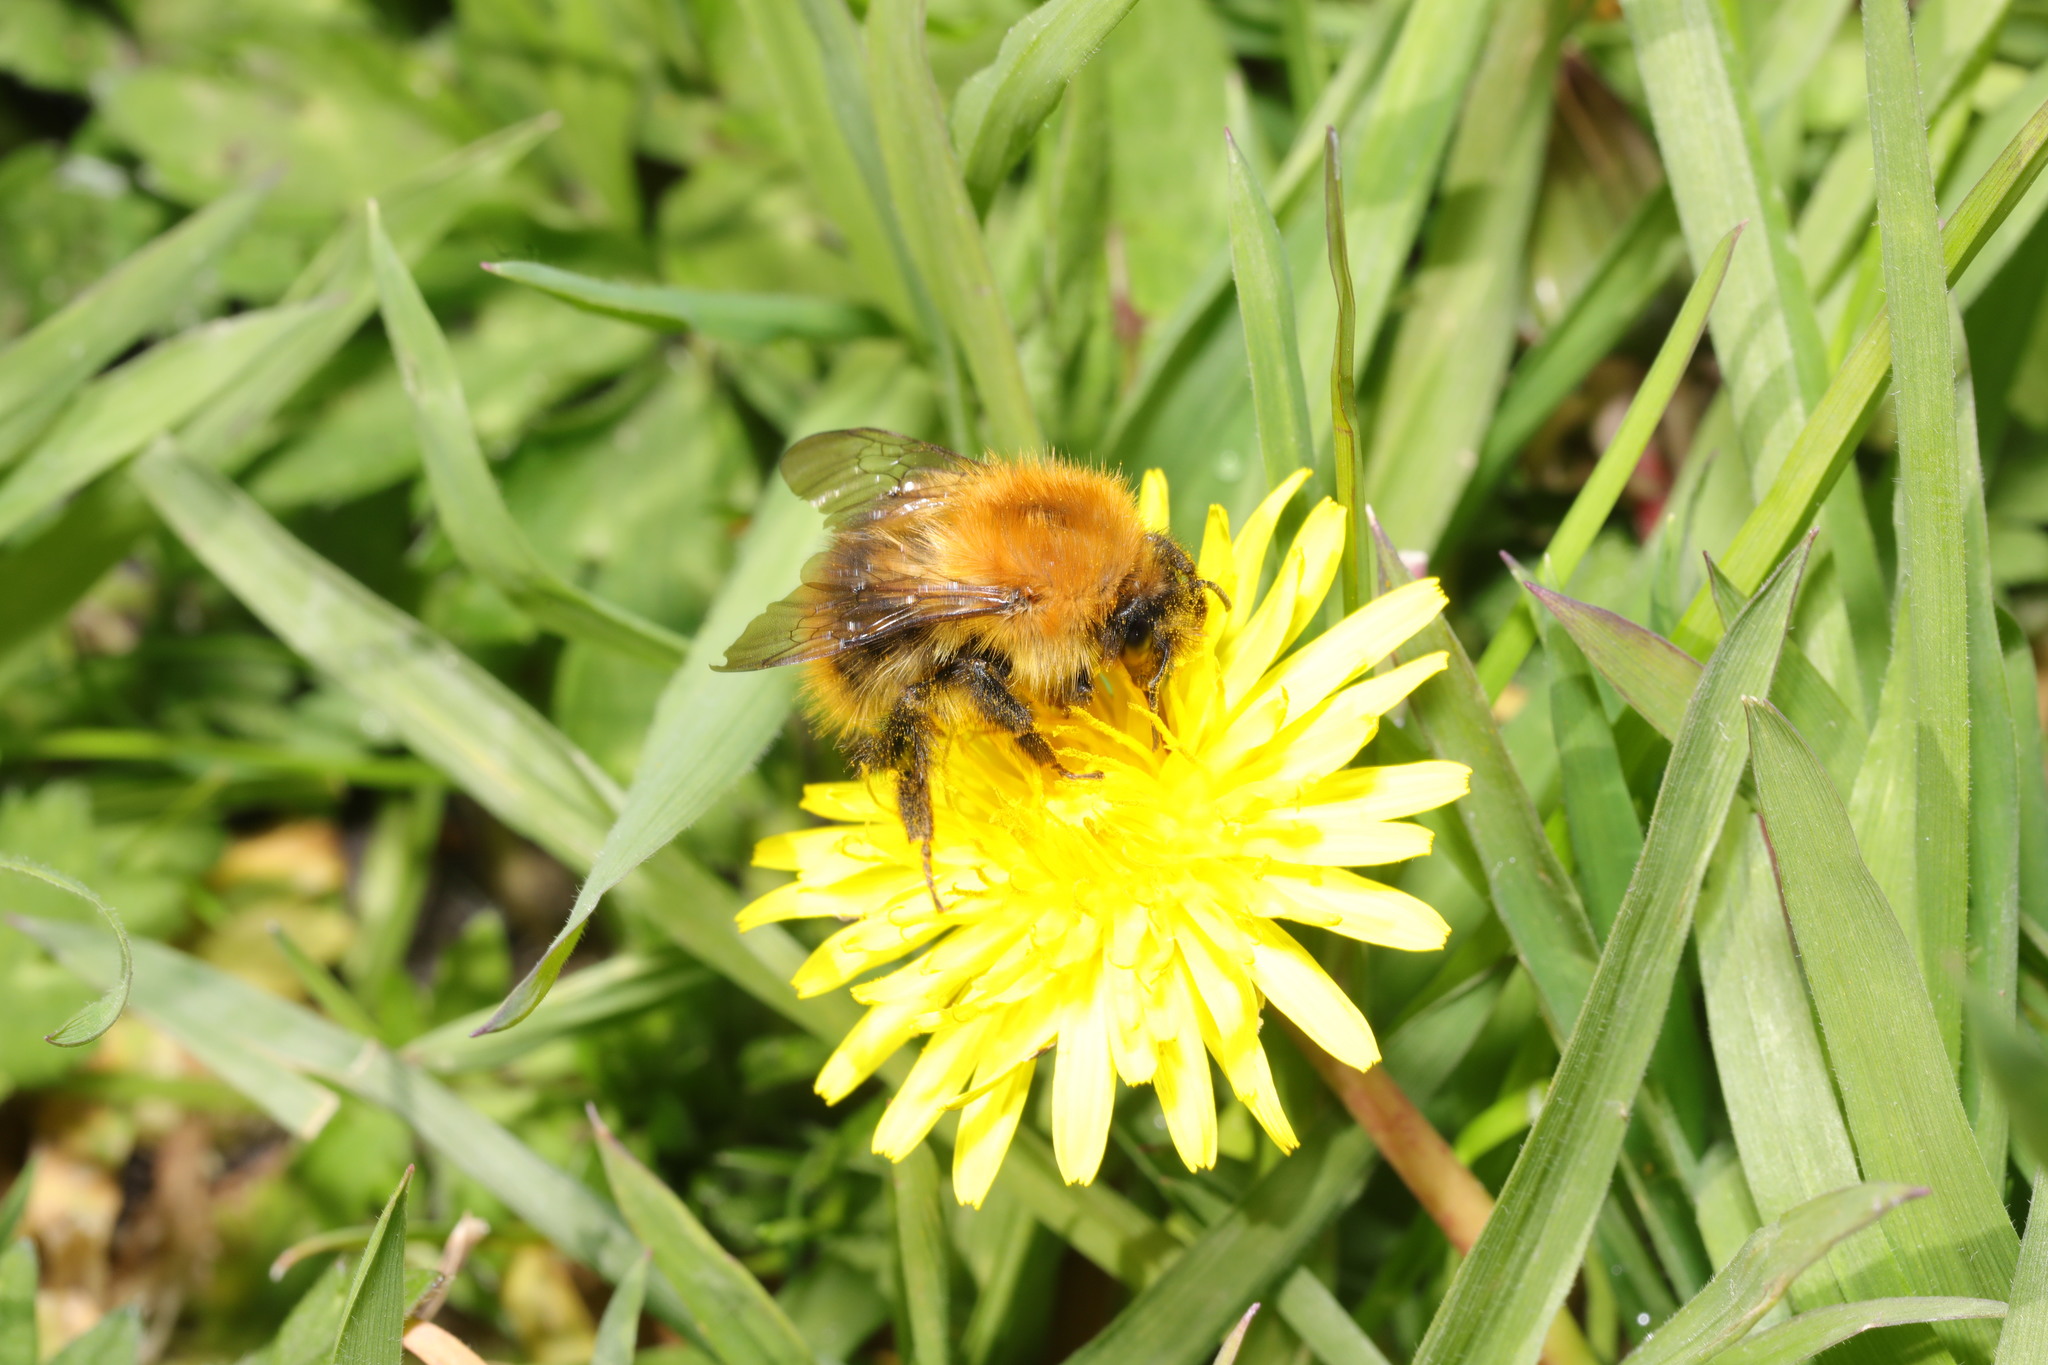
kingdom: Animalia
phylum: Arthropoda
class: Insecta
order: Hymenoptera
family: Apidae
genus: Bombus
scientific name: Bombus pascuorum
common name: Common carder bee
